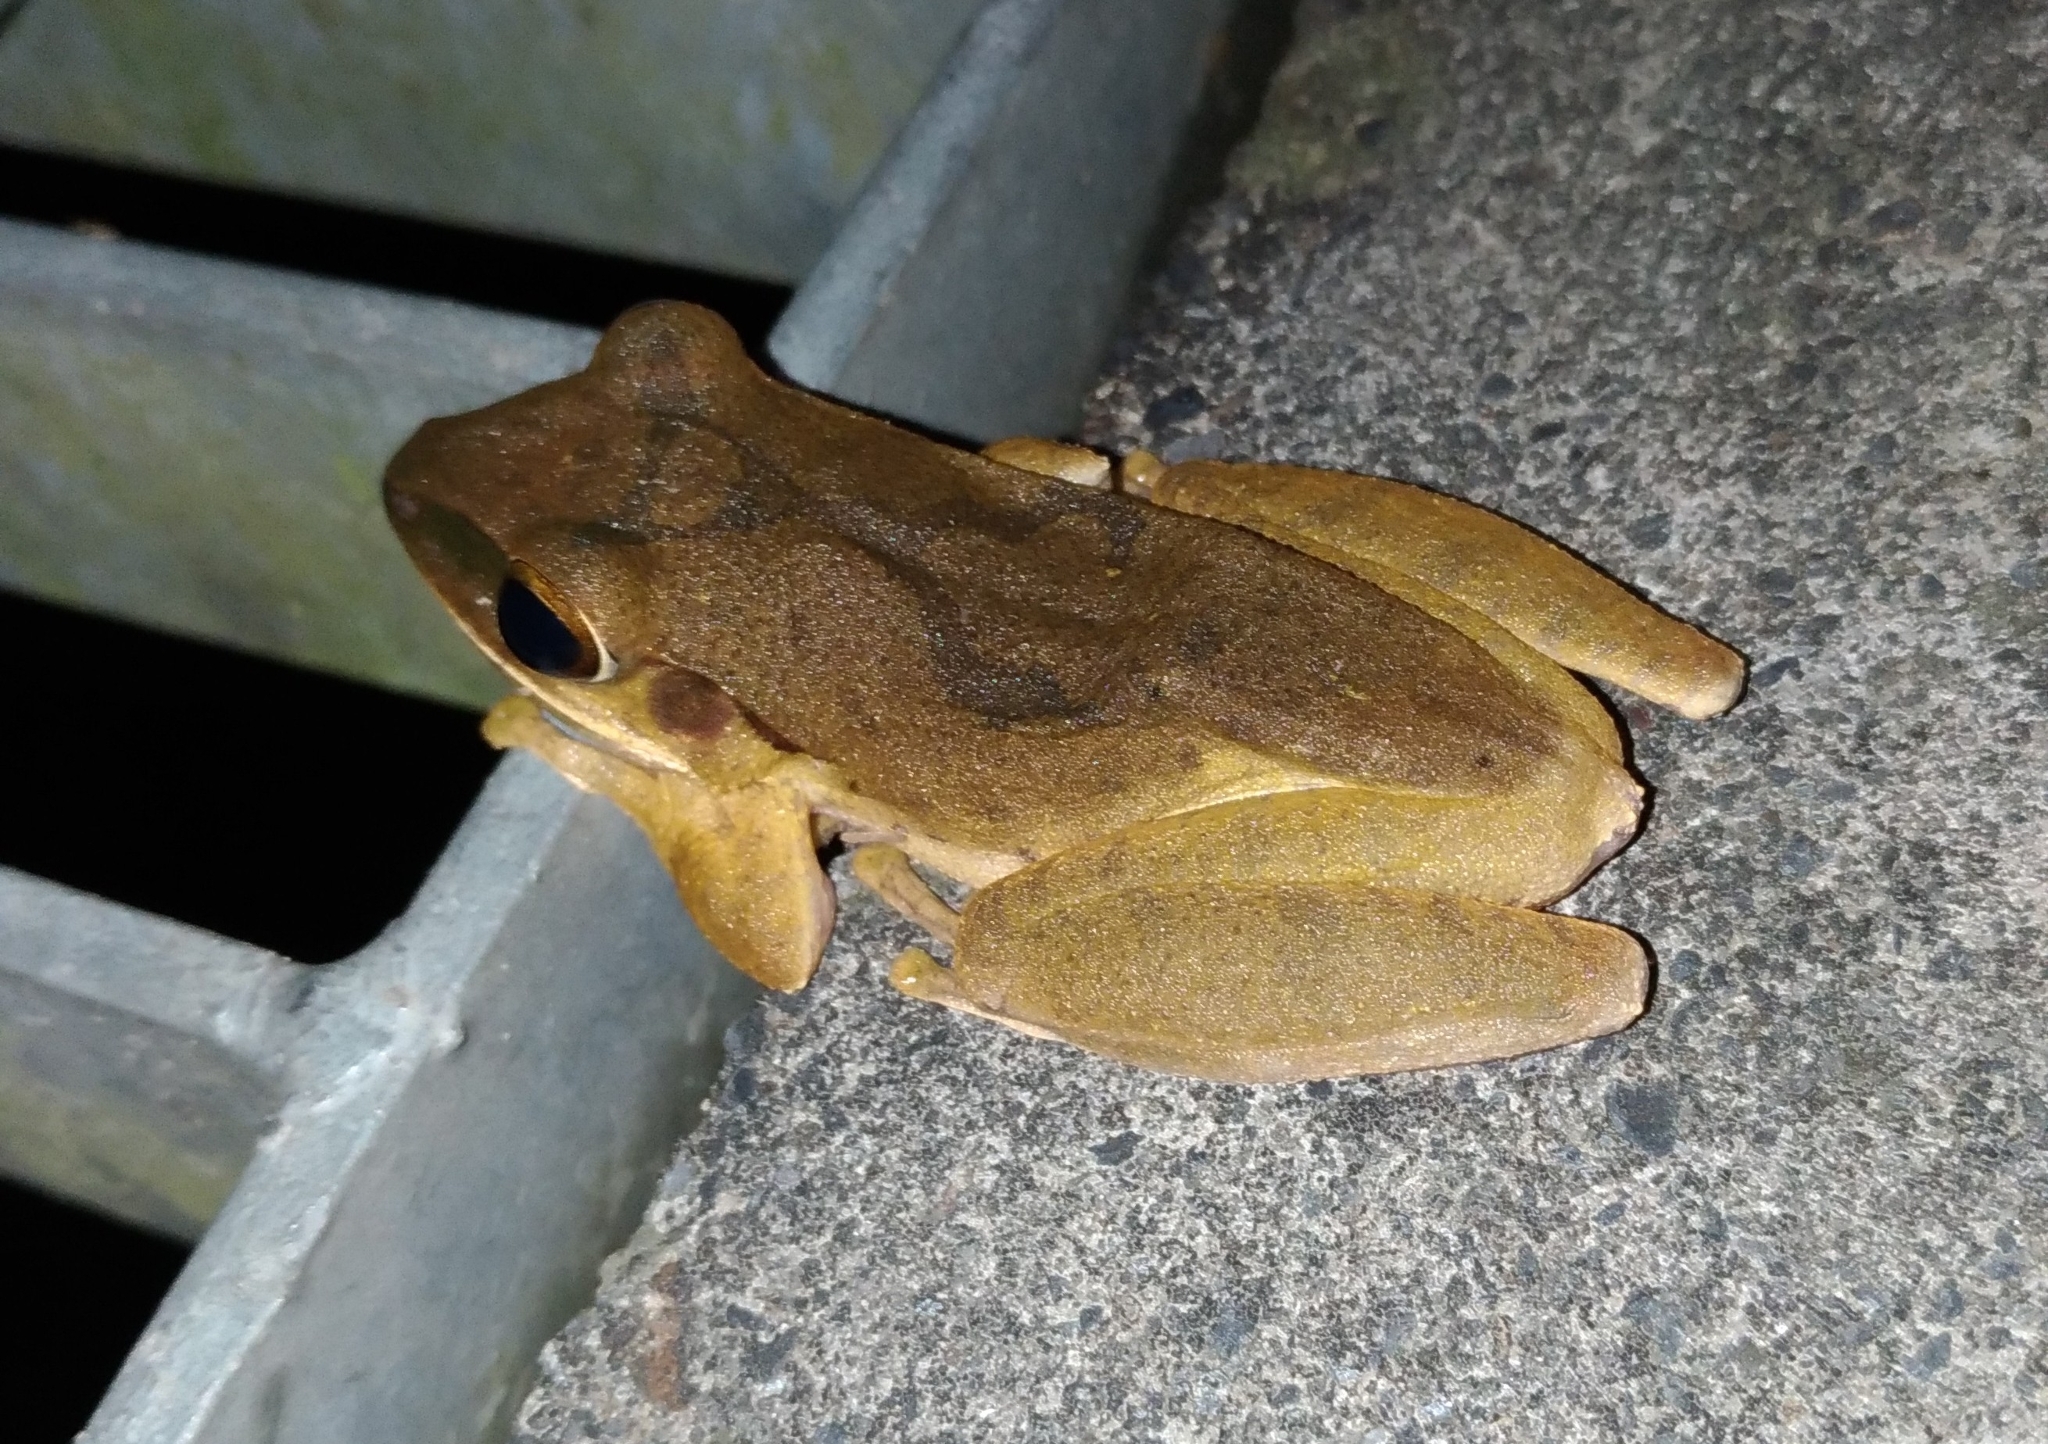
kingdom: Animalia
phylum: Chordata
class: Amphibia
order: Anura
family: Rhacophoridae
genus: Polypedates
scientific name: Polypedates megacephalus
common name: Hong kong whipping frog
